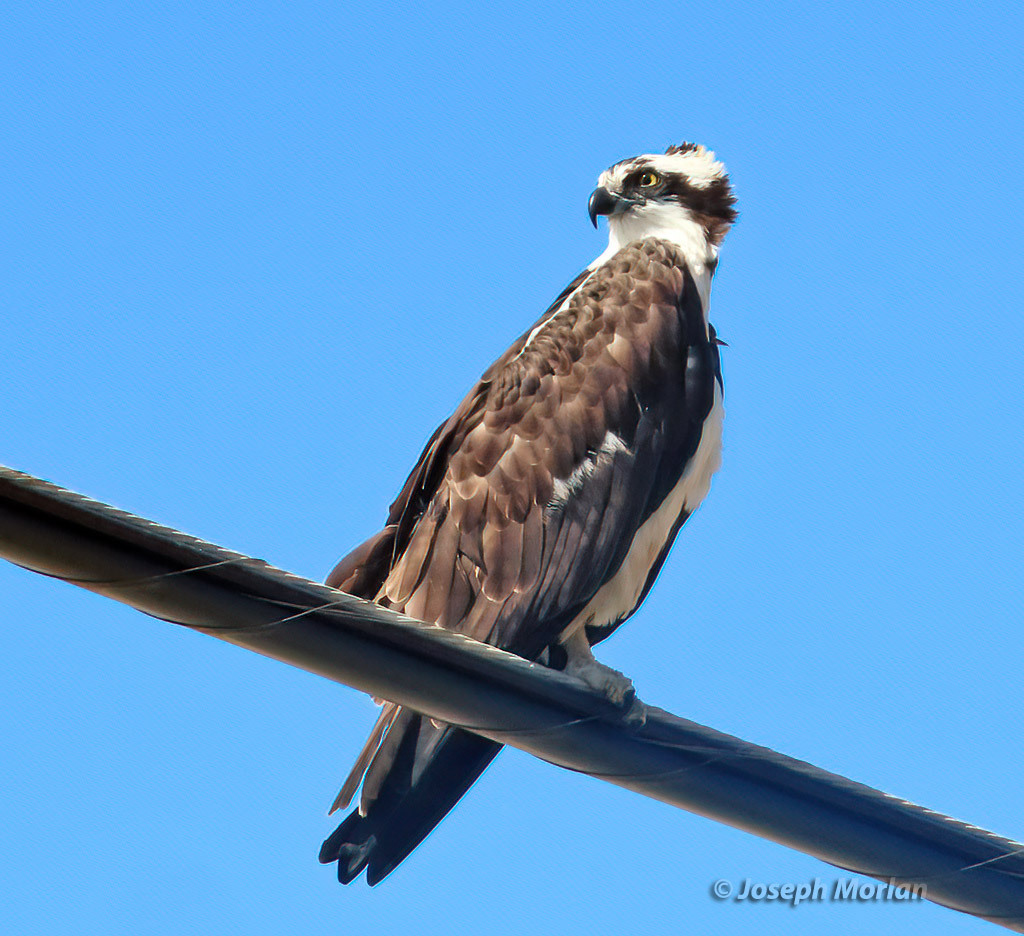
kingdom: Animalia
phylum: Chordata
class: Aves
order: Accipitriformes
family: Pandionidae
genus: Pandion
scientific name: Pandion haliaetus
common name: Osprey
